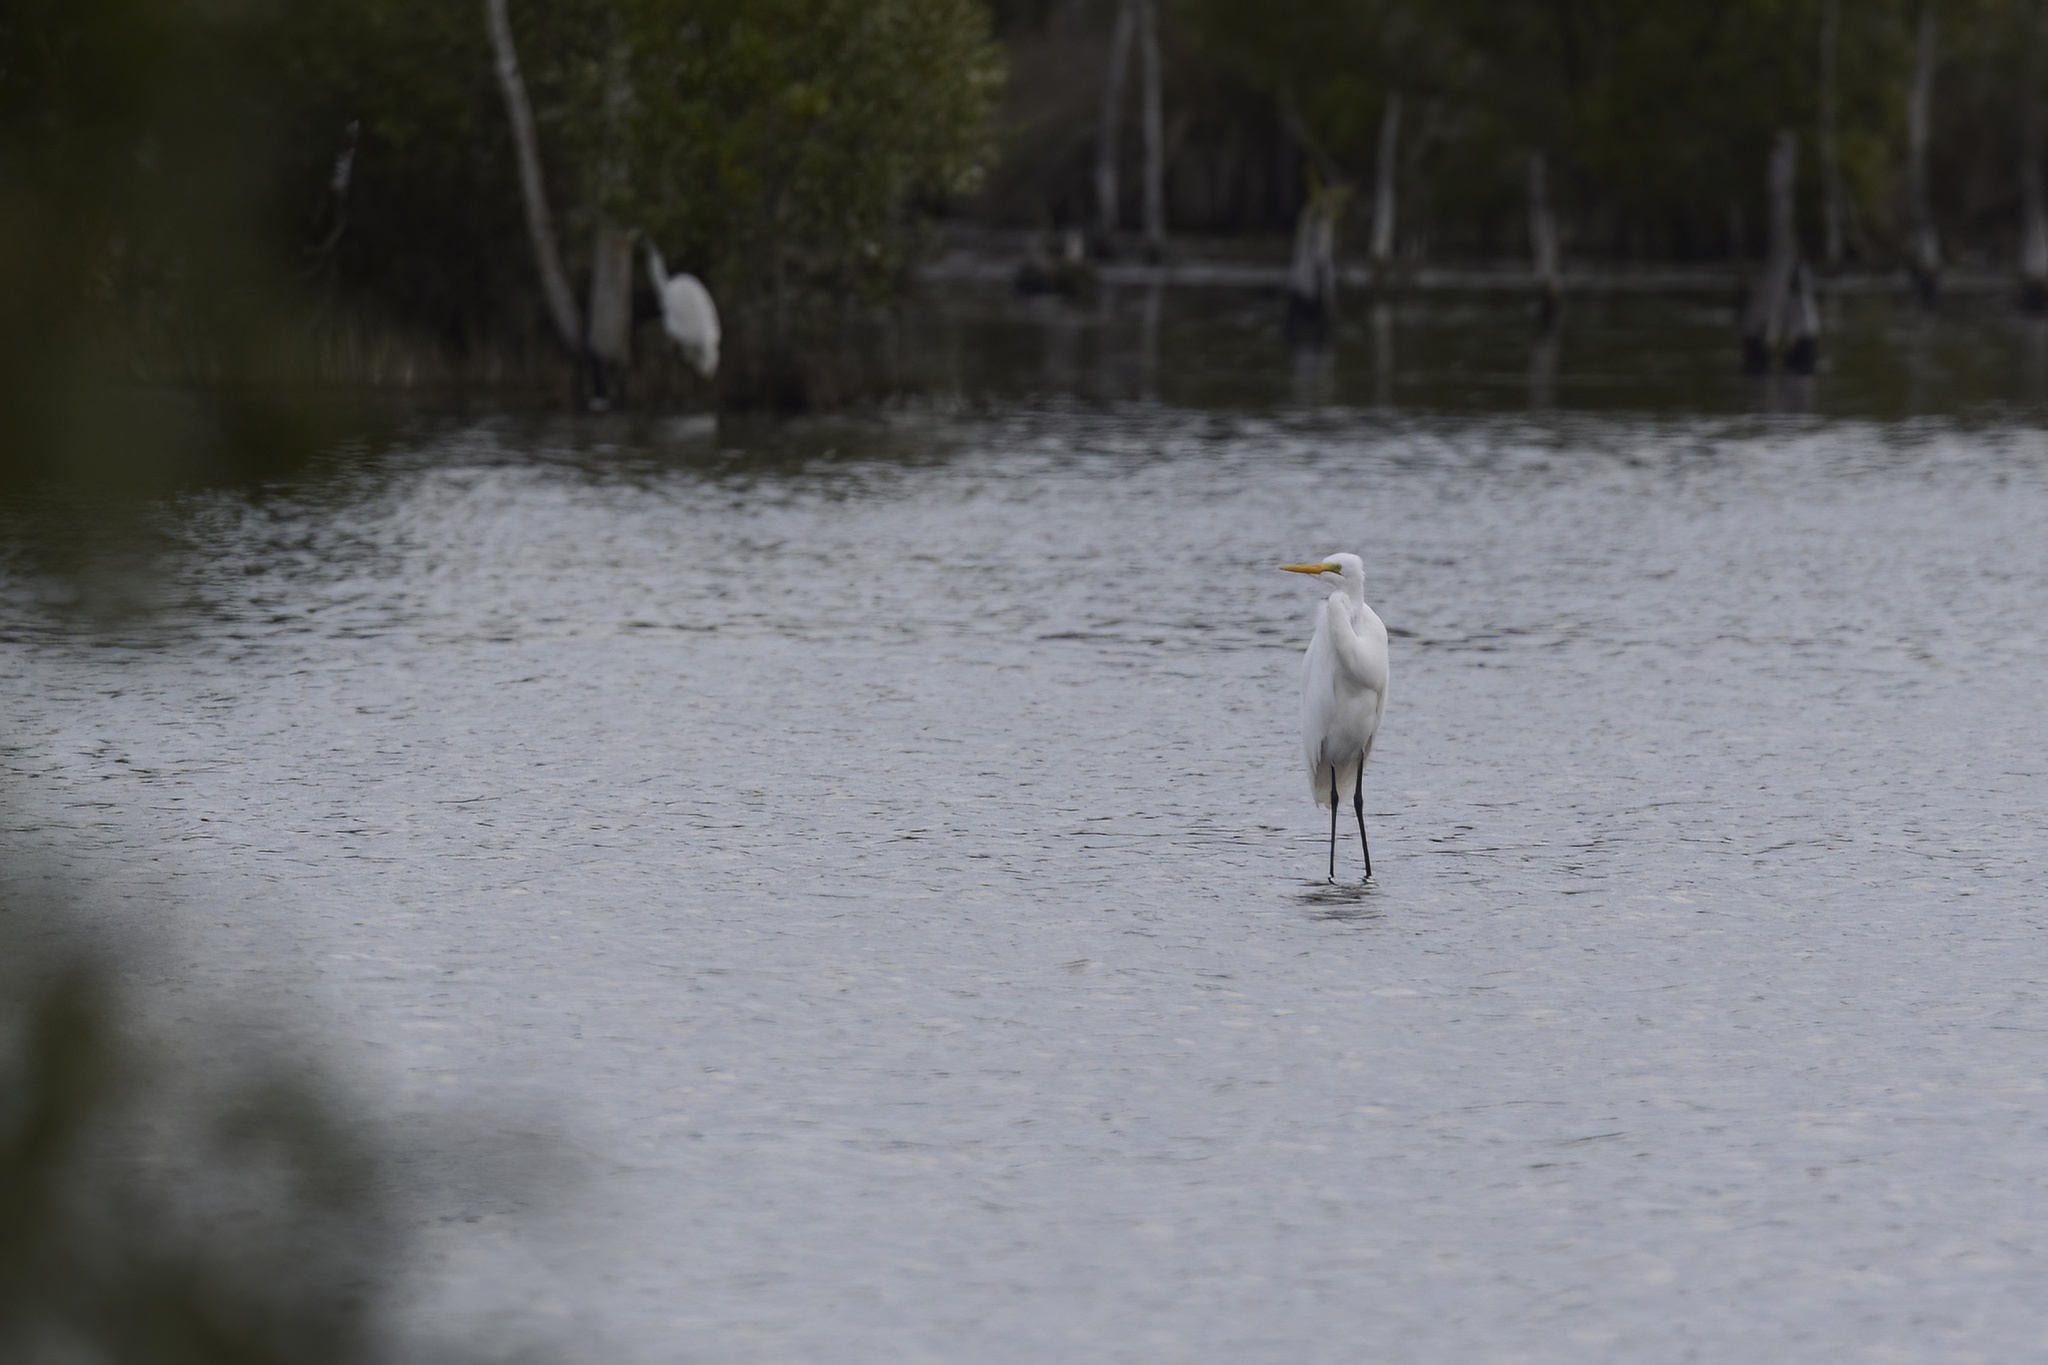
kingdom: Animalia
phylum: Chordata
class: Aves
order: Pelecaniformes
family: Ardeidae
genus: Ardea
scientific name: Ardea alba
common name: Great egret
